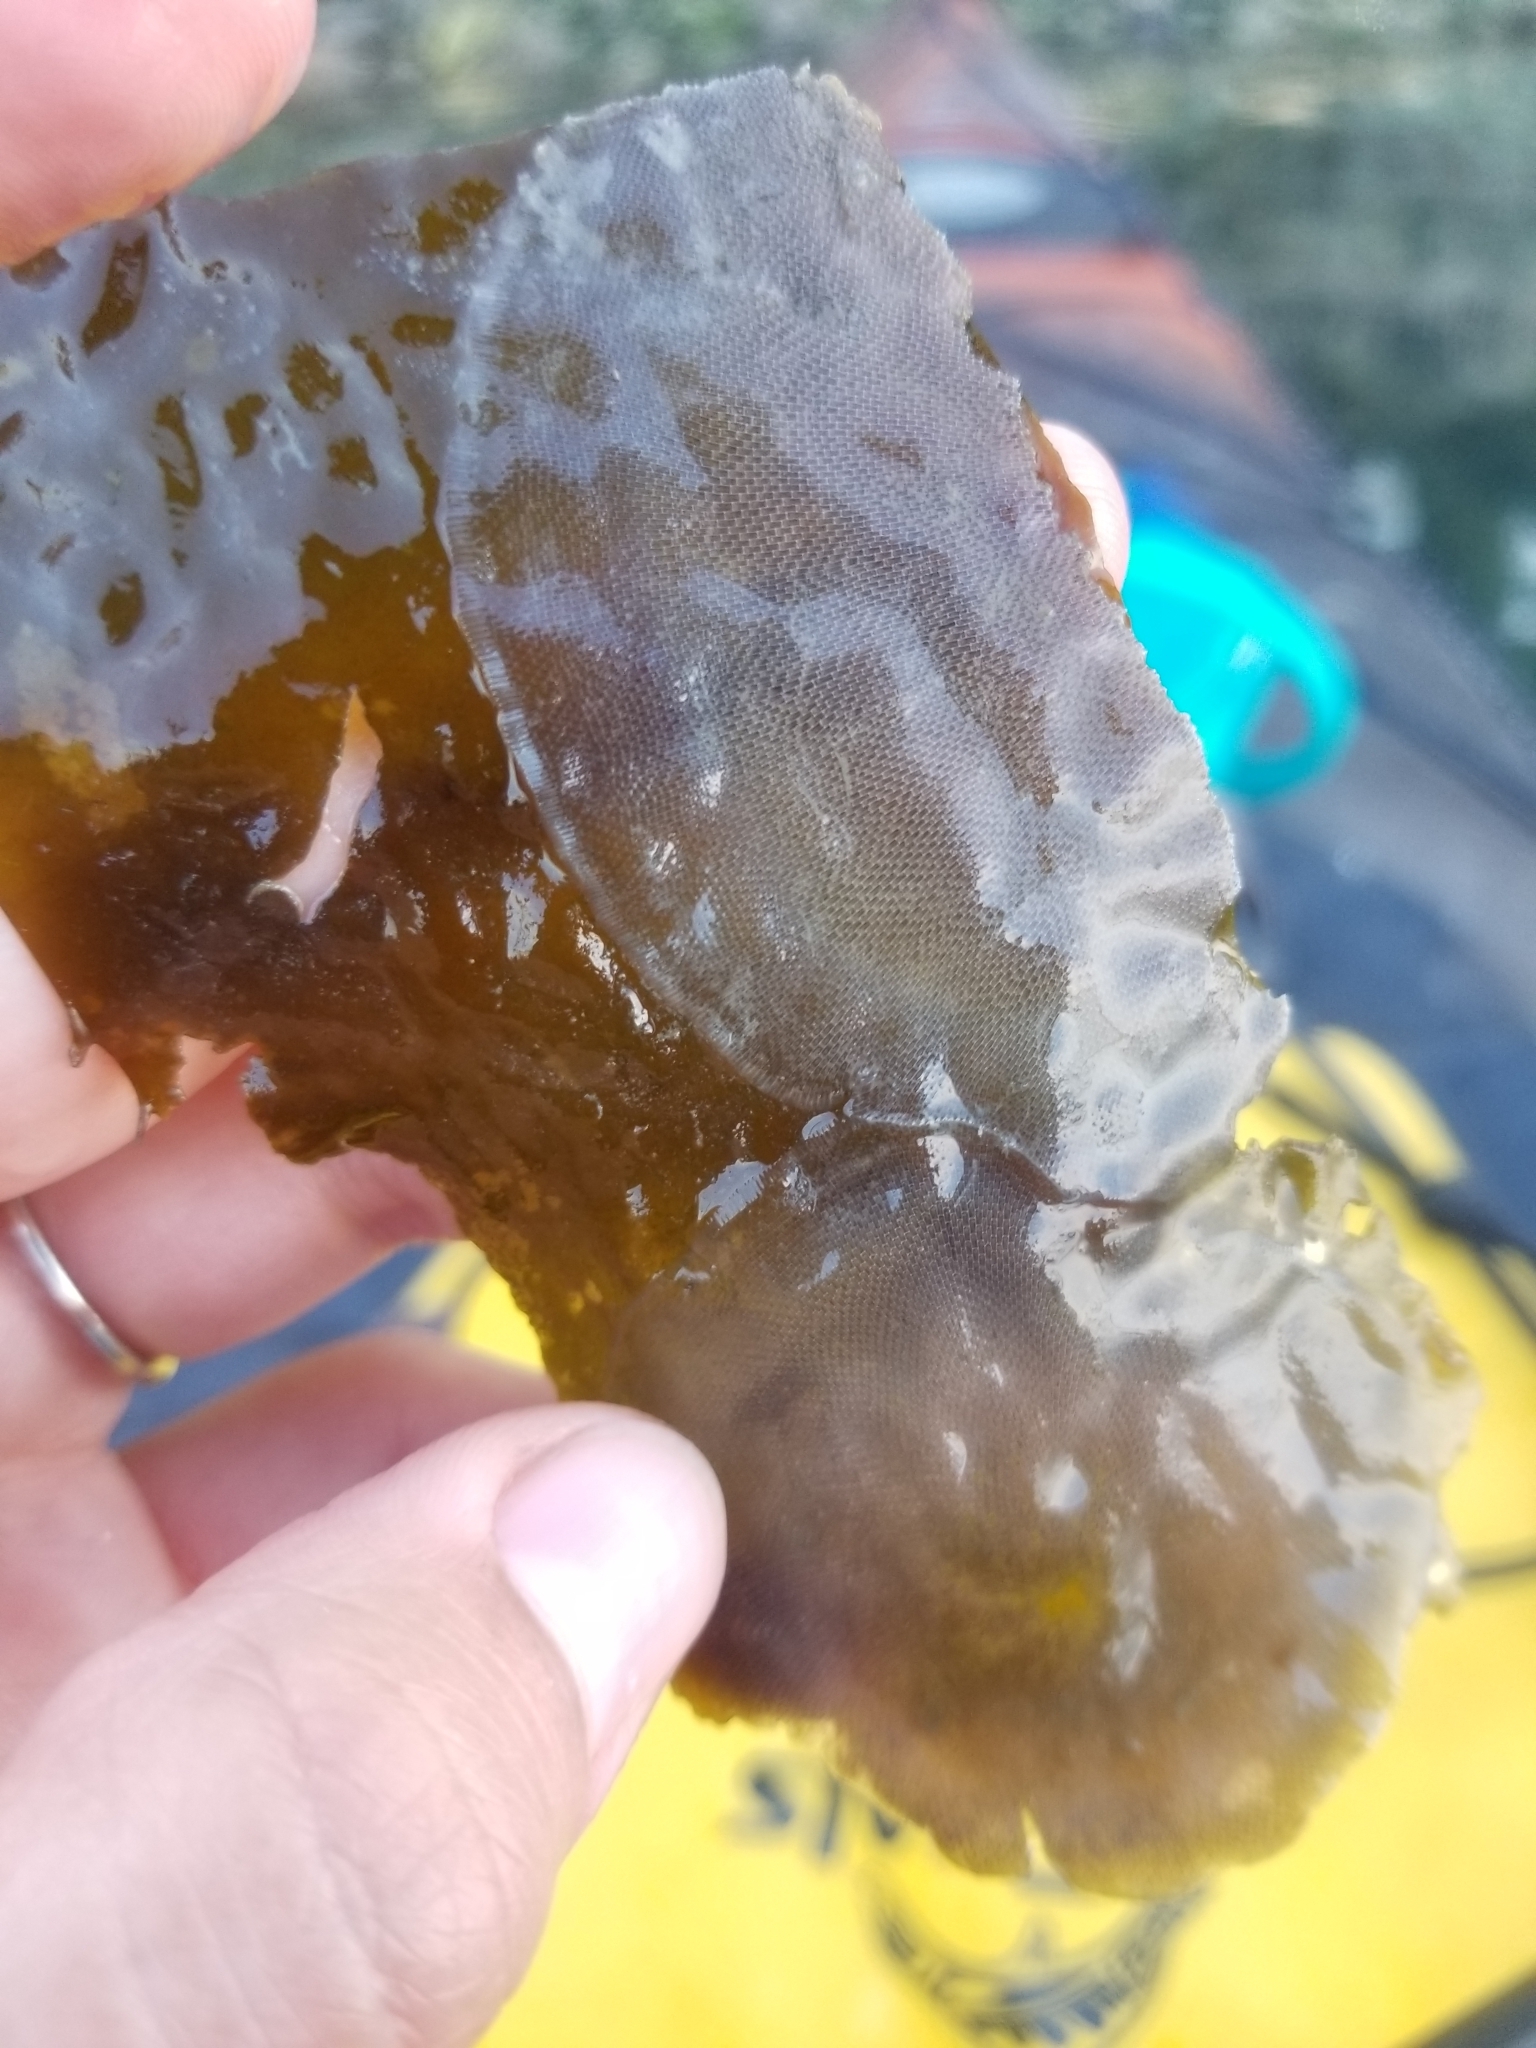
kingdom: Animalia
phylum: Bryozoa
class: Gymnolaemata
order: Cheilostomatida
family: Membraniporidae
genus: Membranipora
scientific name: Membranipora membranacea
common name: Sea mat
